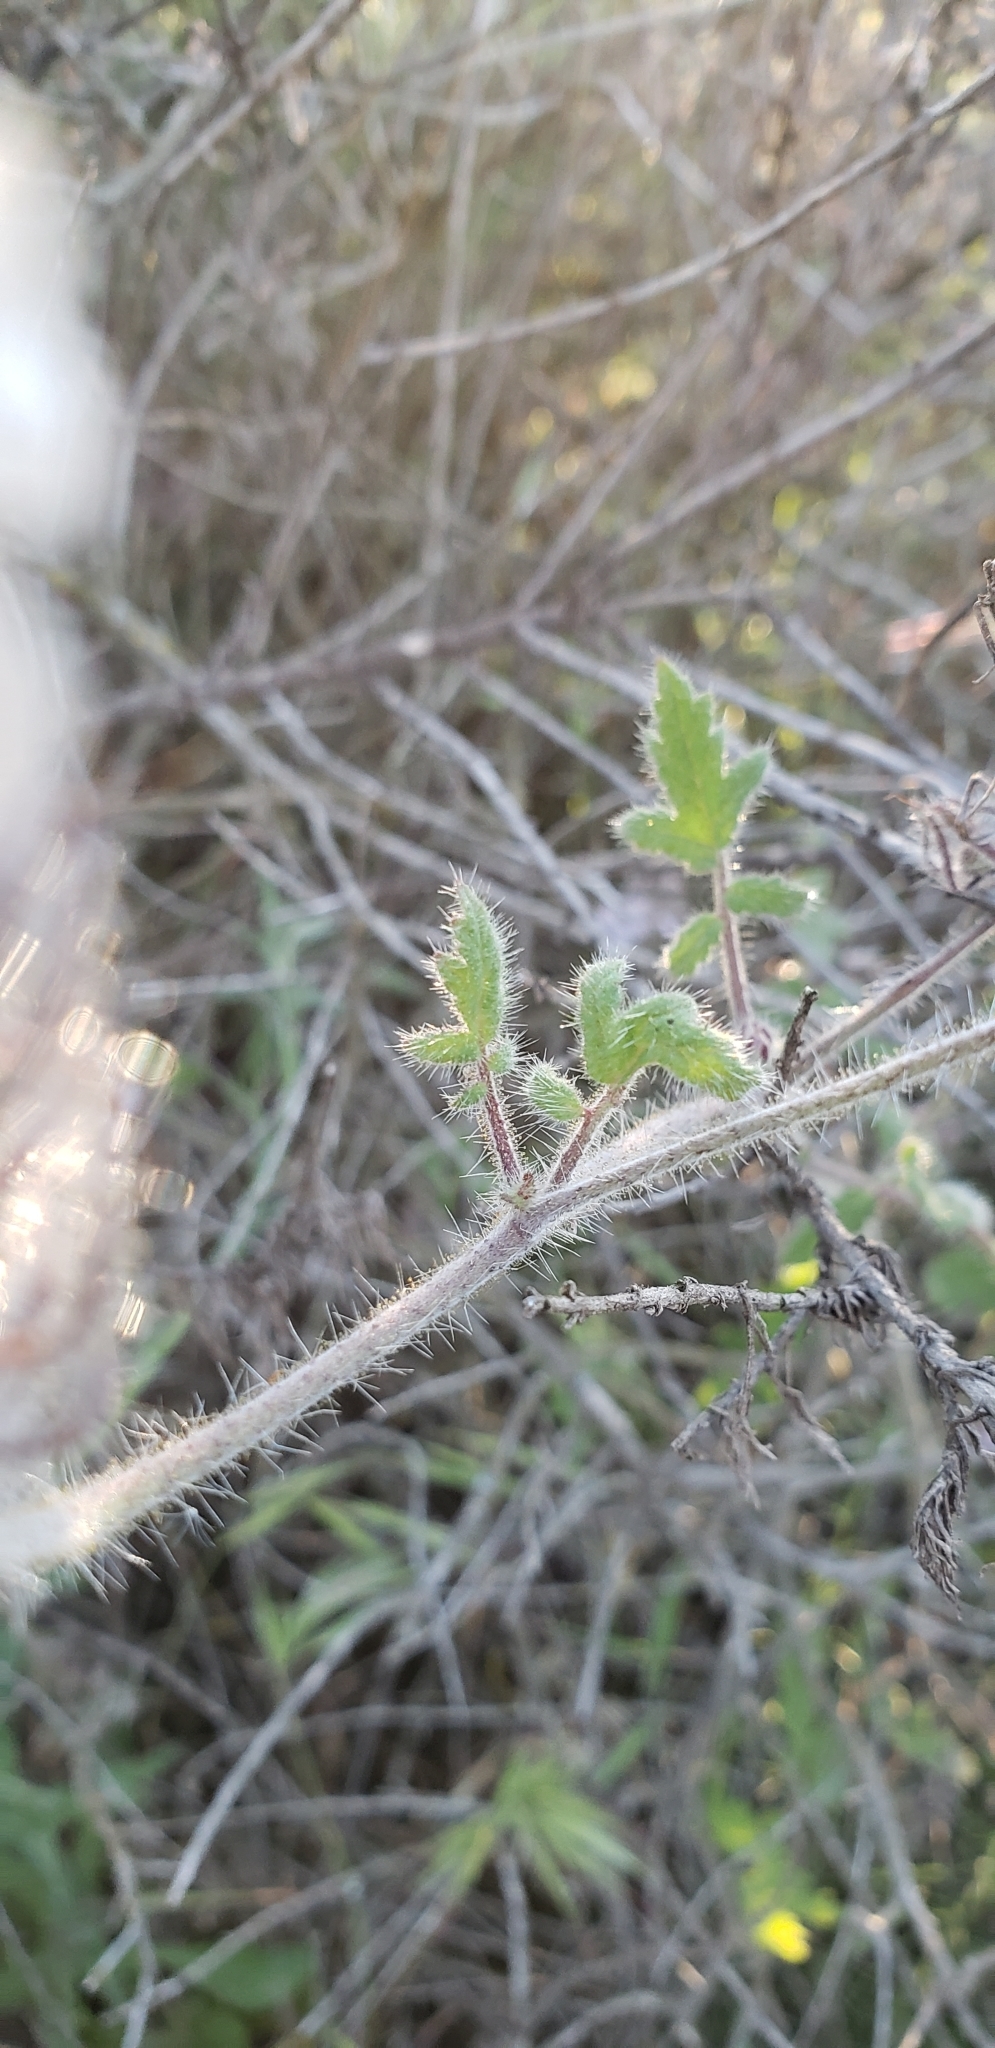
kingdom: Plantae
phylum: Tracheophyta
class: Magnoliopsida
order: Boraginales
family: Hydrophyllaceae
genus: Phacelia
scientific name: Phacelia cicutaria
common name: Caterpillar phacelia
